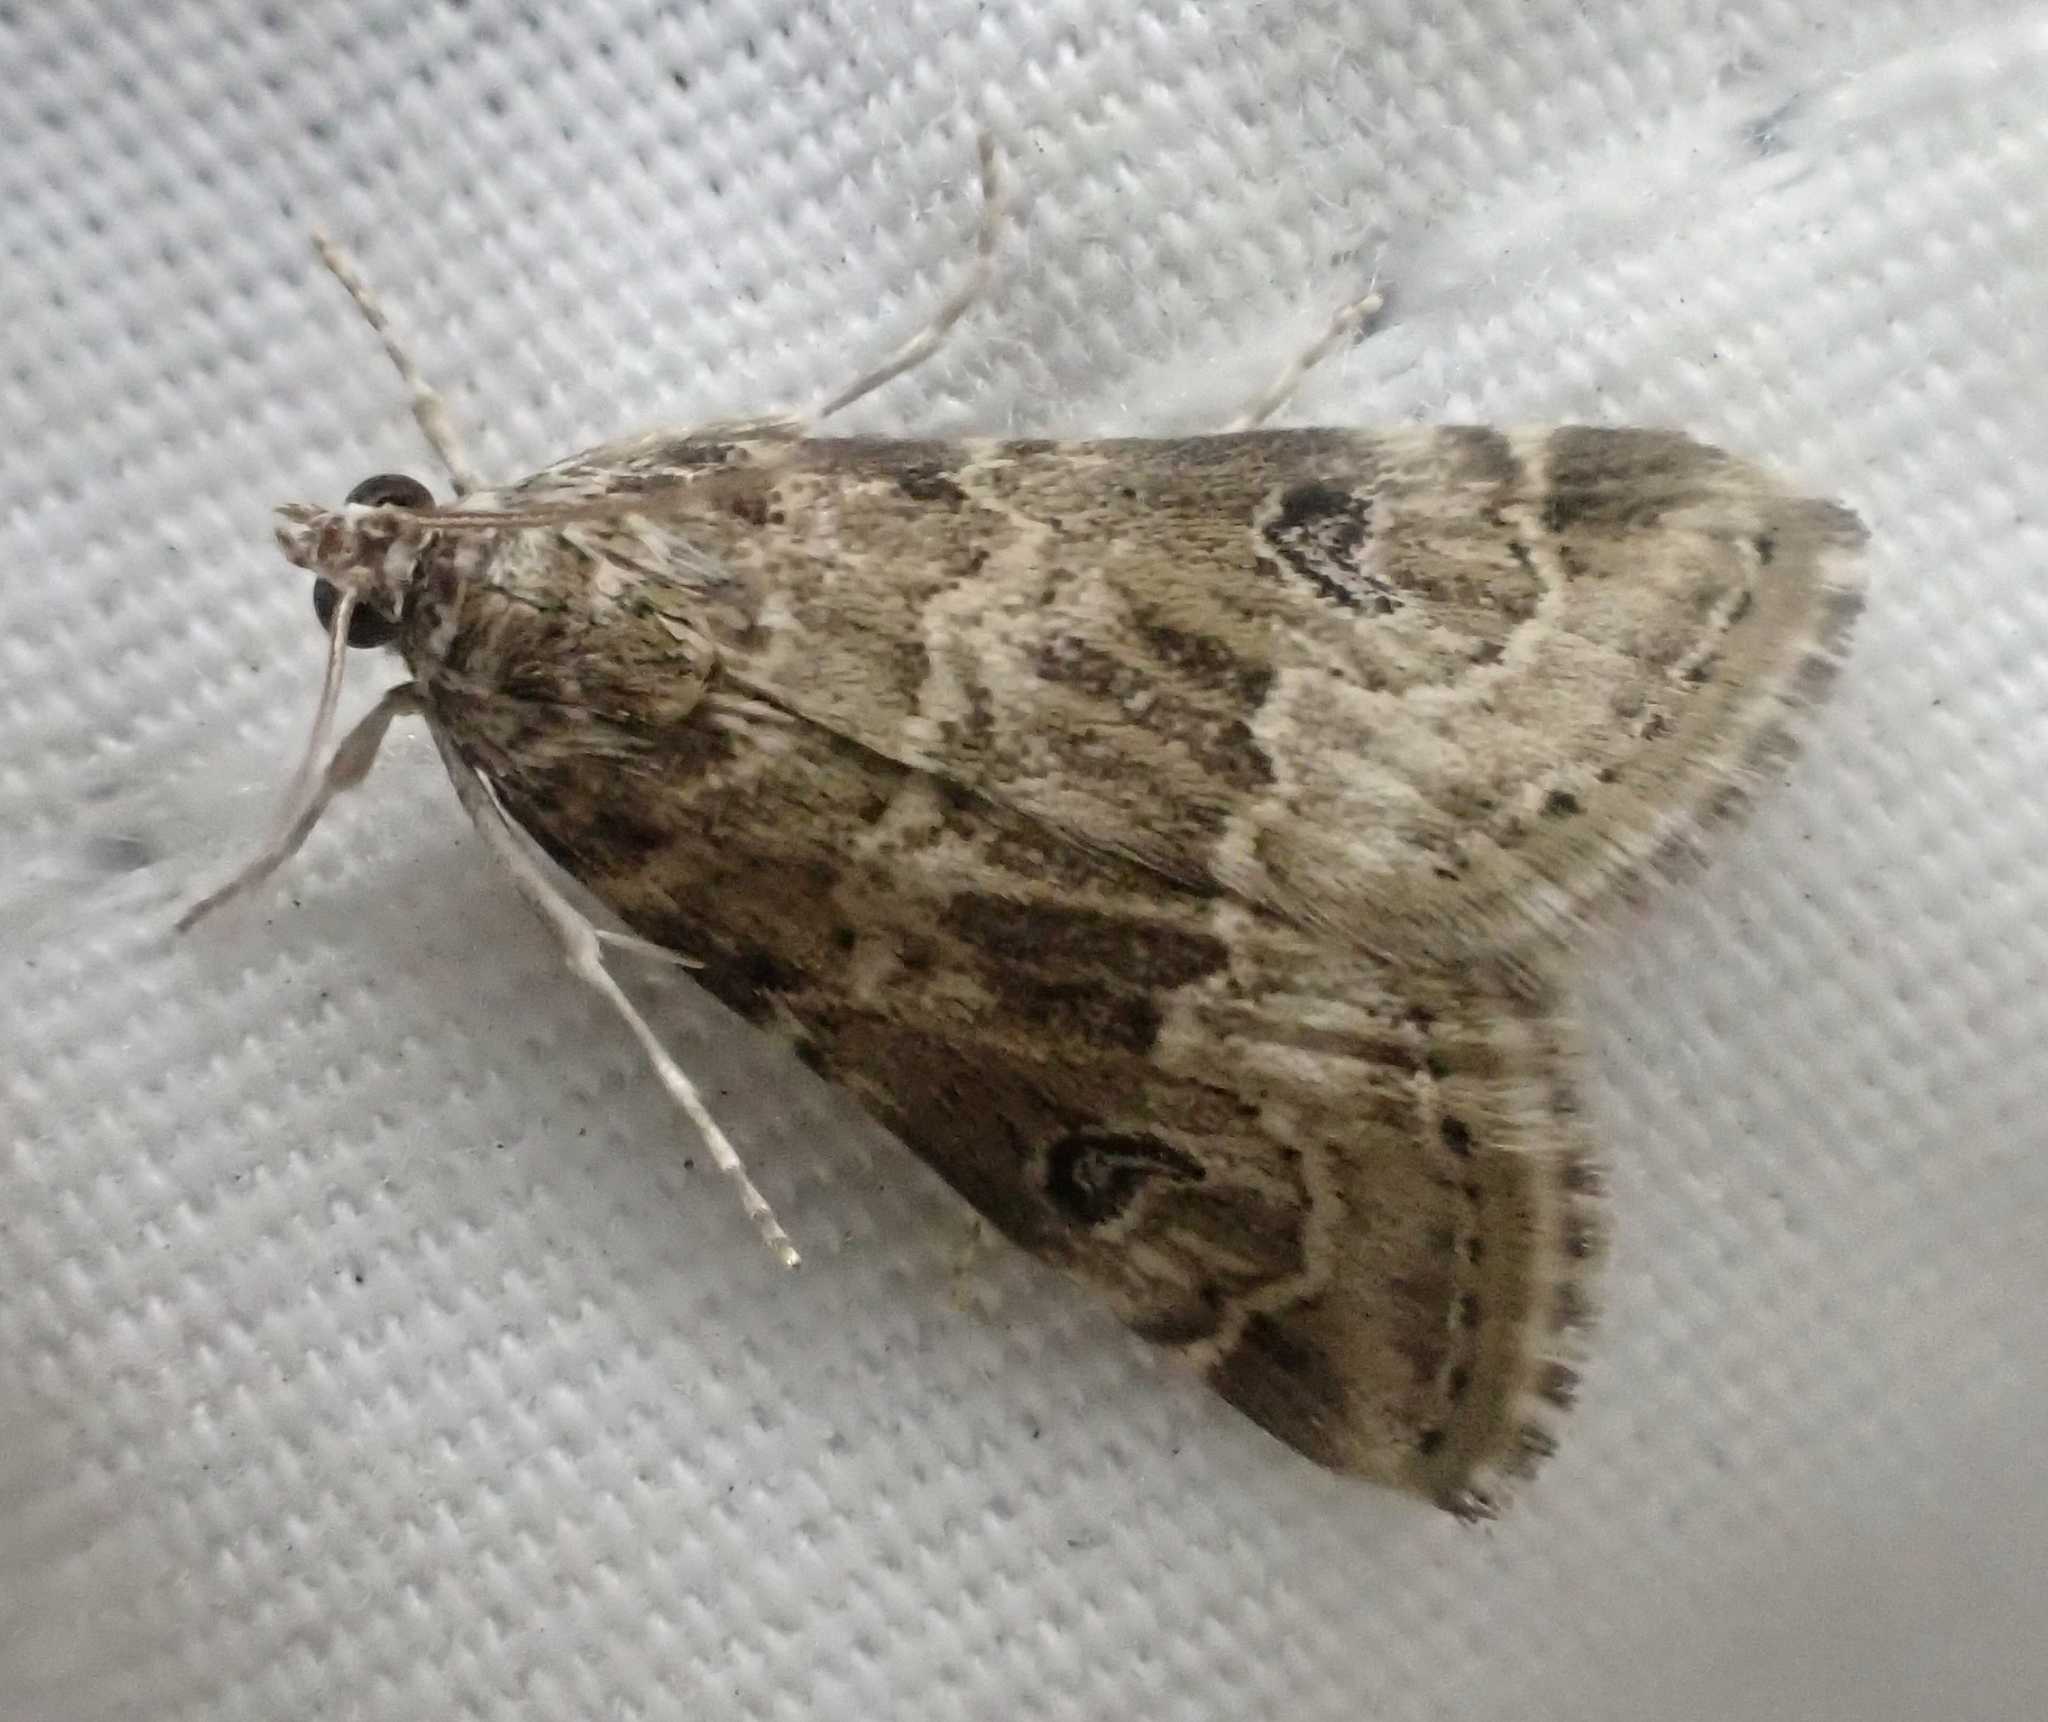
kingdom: Animalia
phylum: Arthropoda
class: Insecta
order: Lepidoptera
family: Crambidae
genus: Hellula
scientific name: Hellula rogatalis
